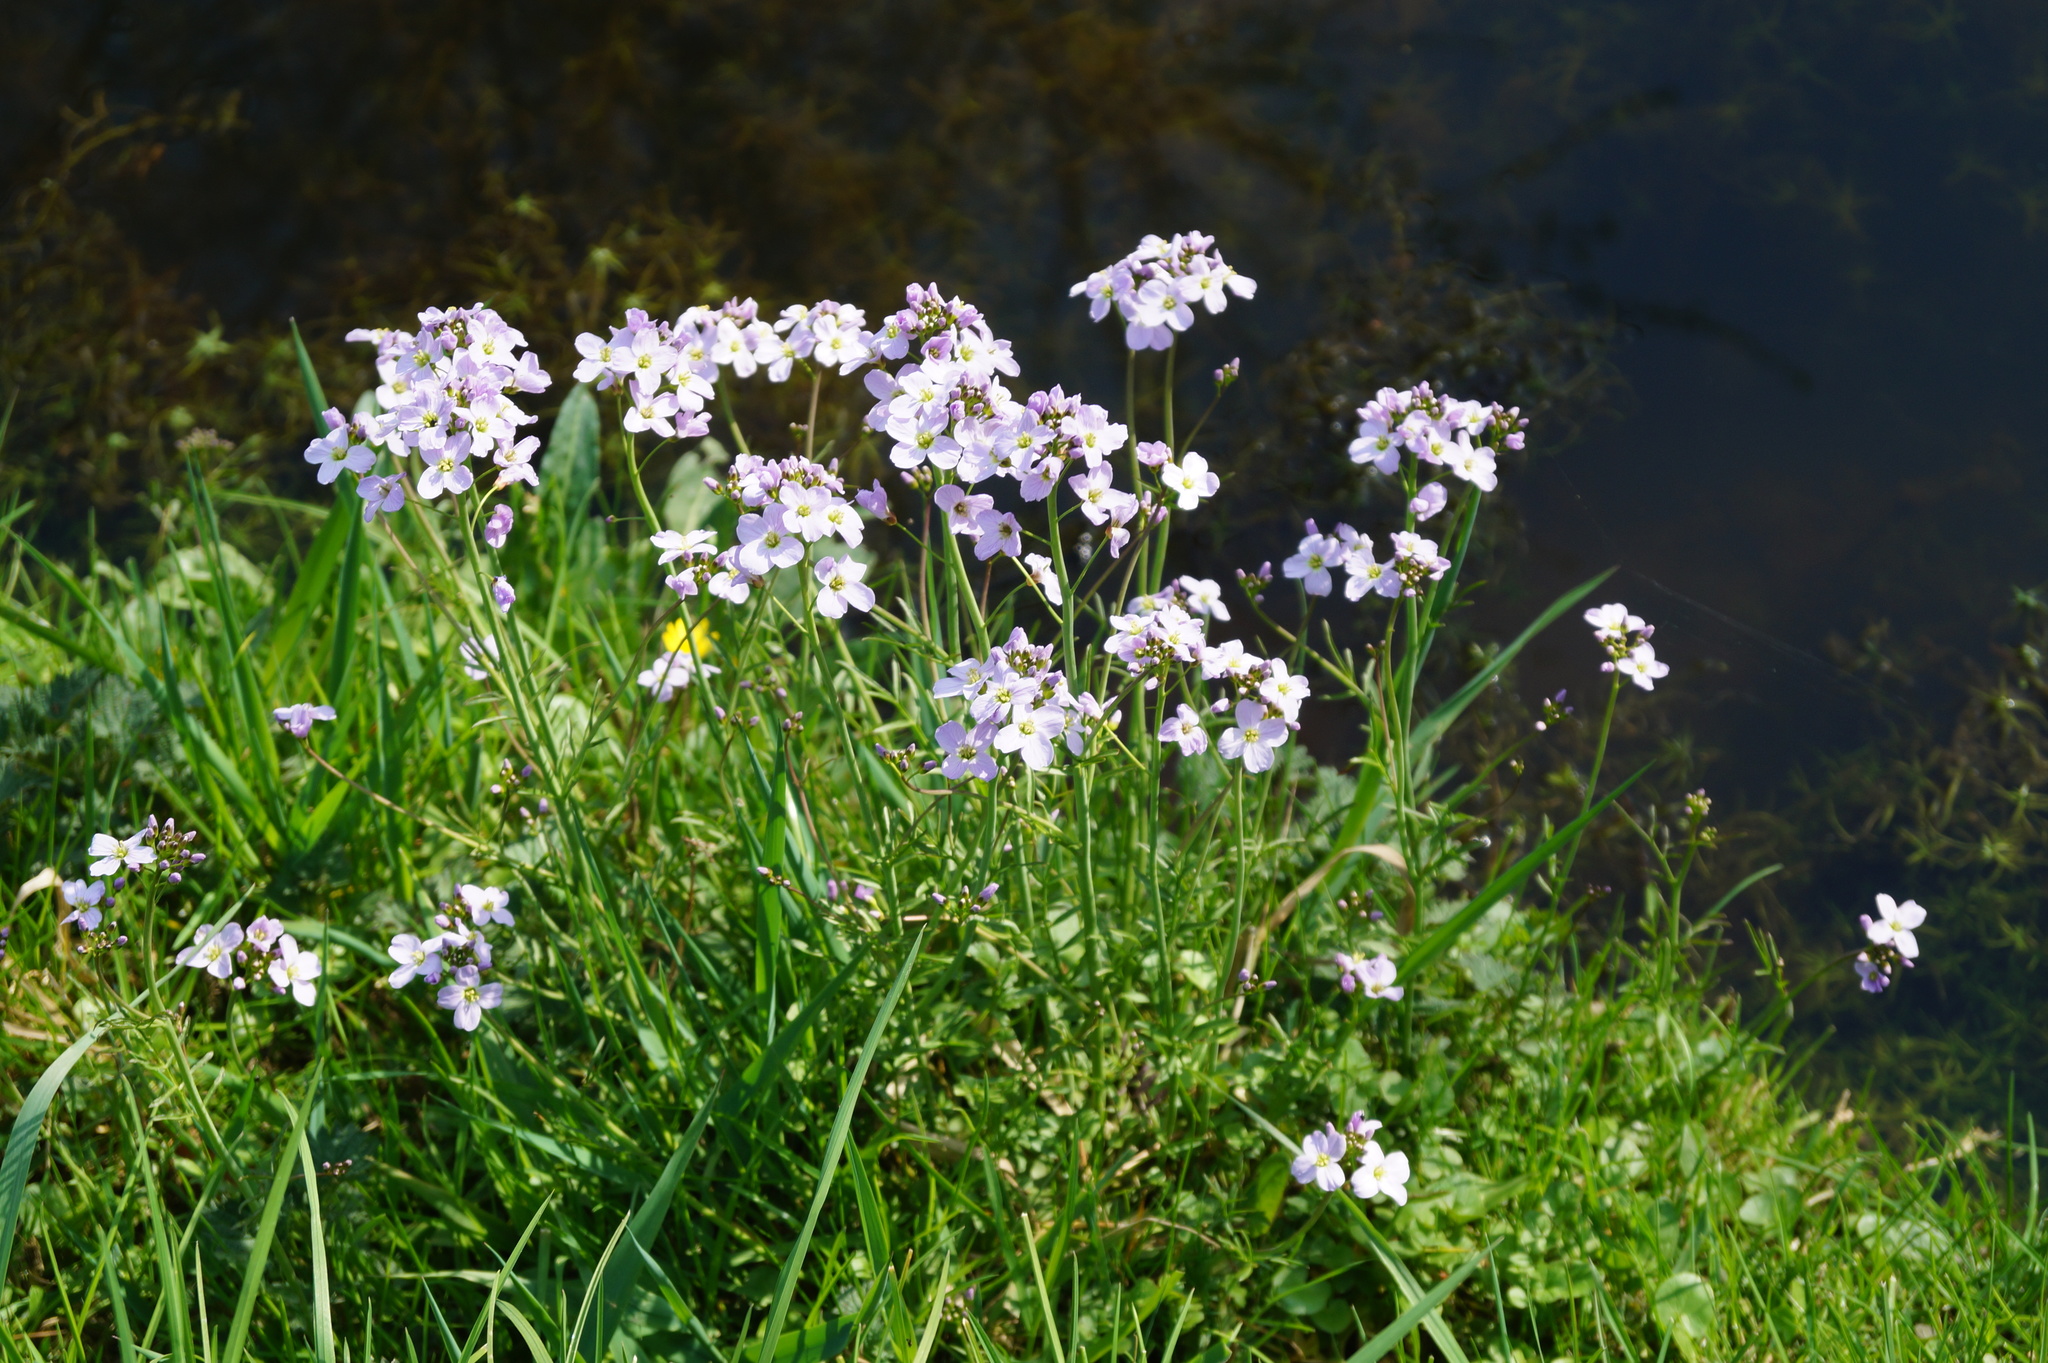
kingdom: Plantae
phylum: Tracheophyta
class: Magnoliopsida
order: Brassicales
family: Brassicaceae
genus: Cardamine
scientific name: Cardamine pratensis
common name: Cuckoo flower
